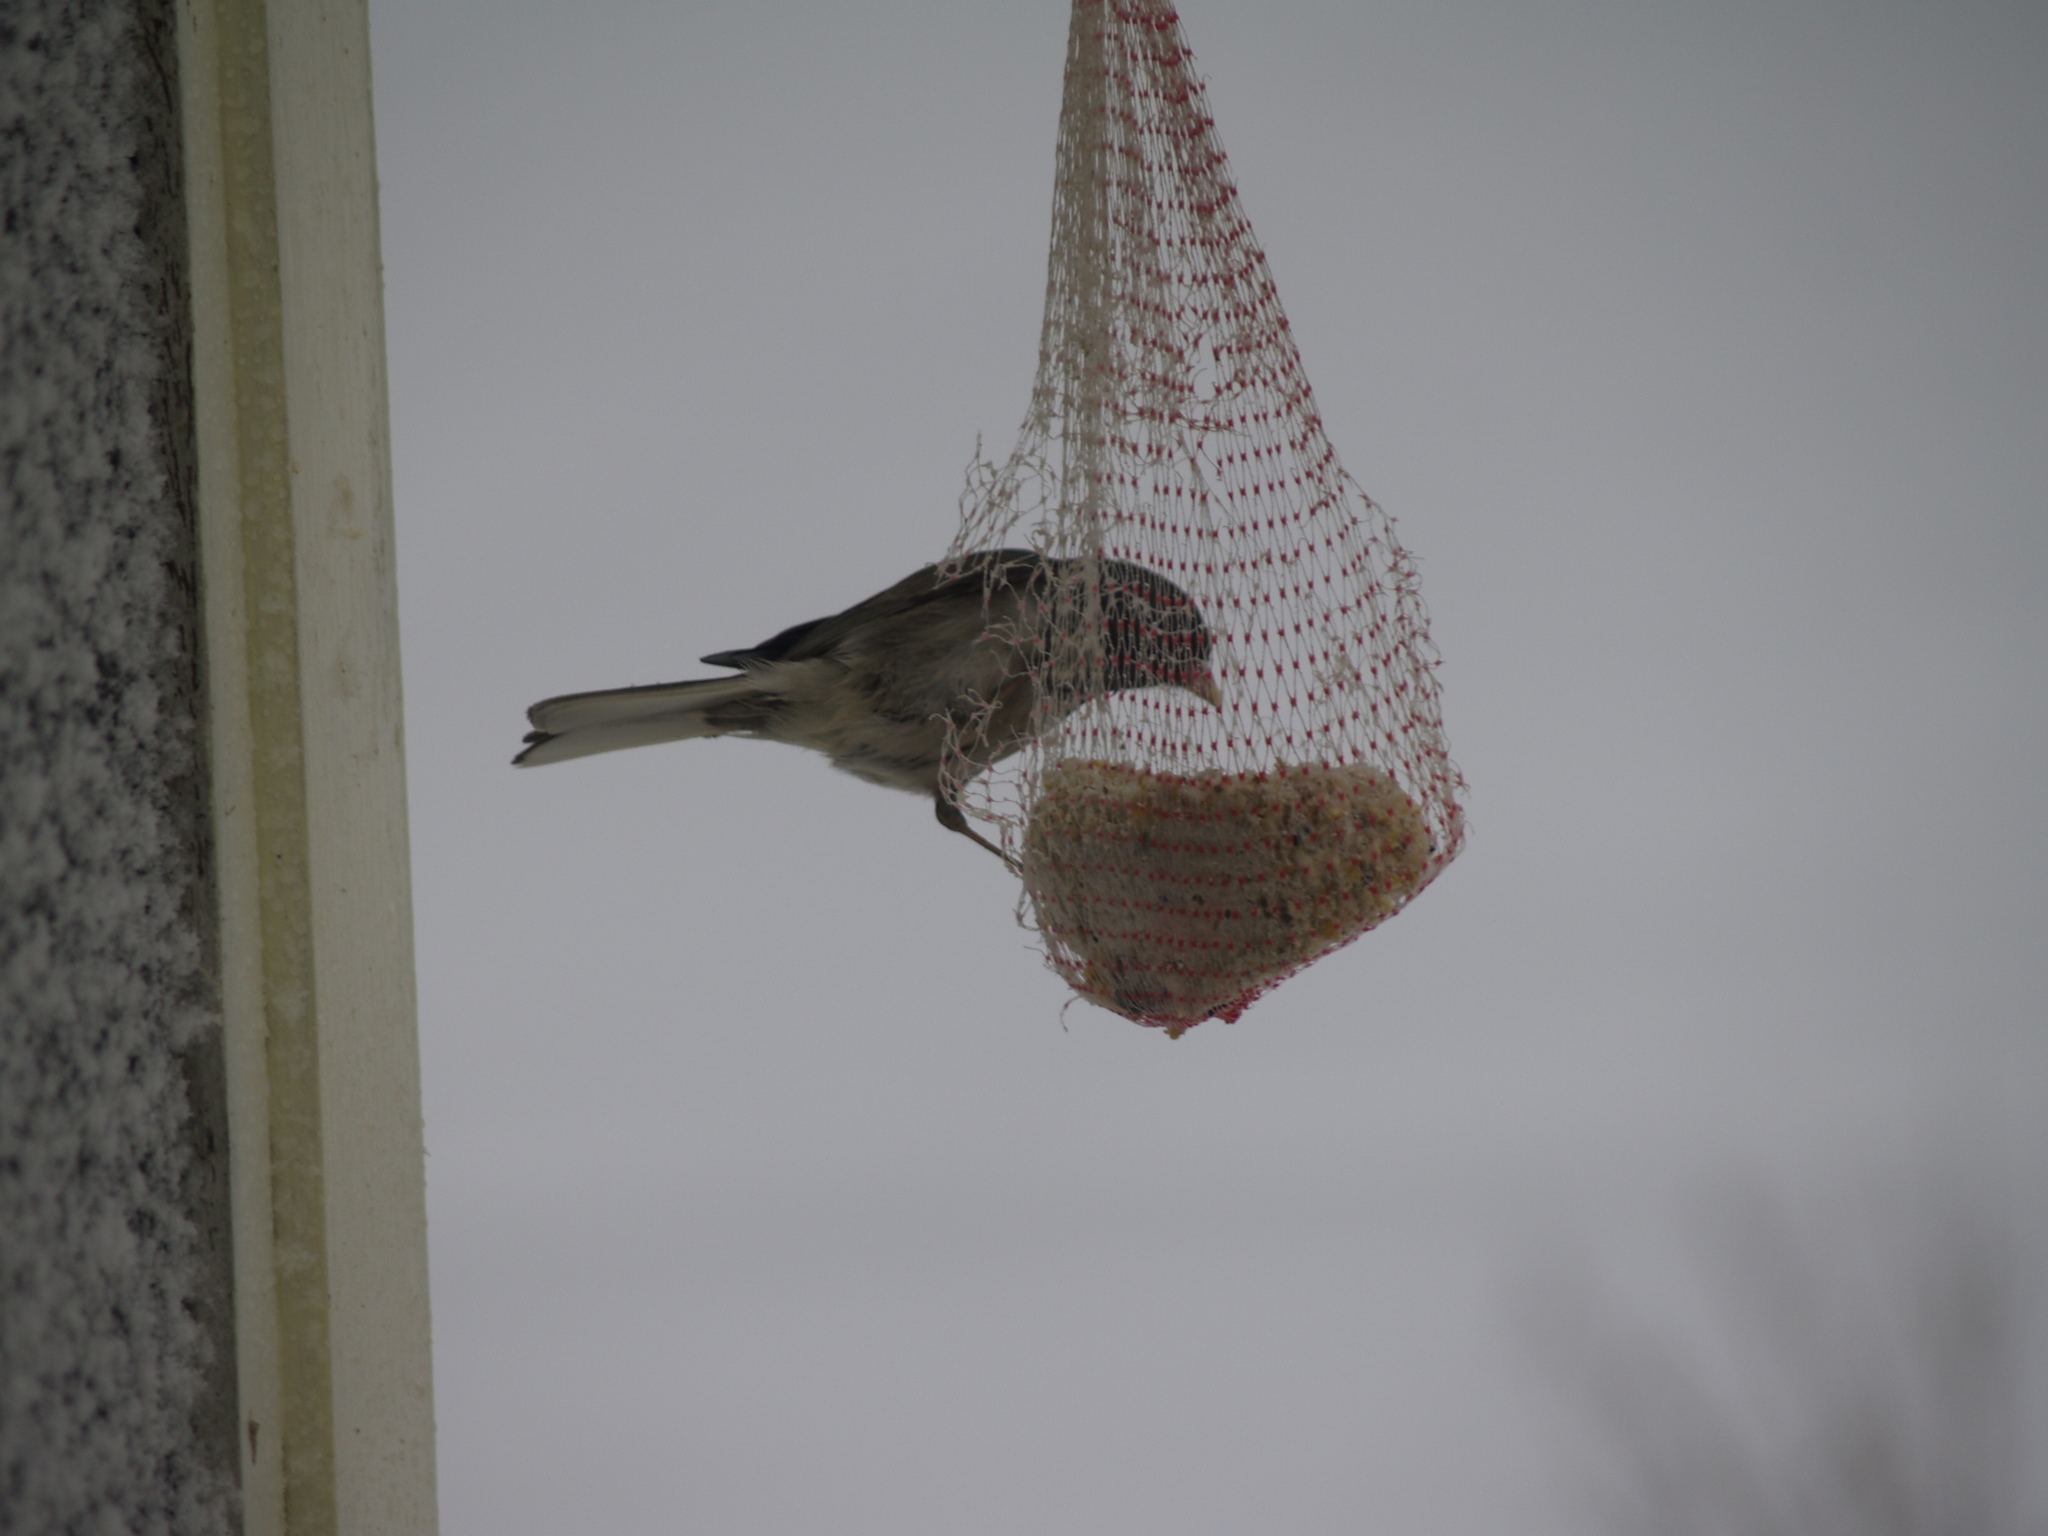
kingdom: Animalia
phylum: Chordata
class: Aves
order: Passeriformes
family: Passerellidae
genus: Junco
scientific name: Junco hyemalis
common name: Dark-eyed junco
